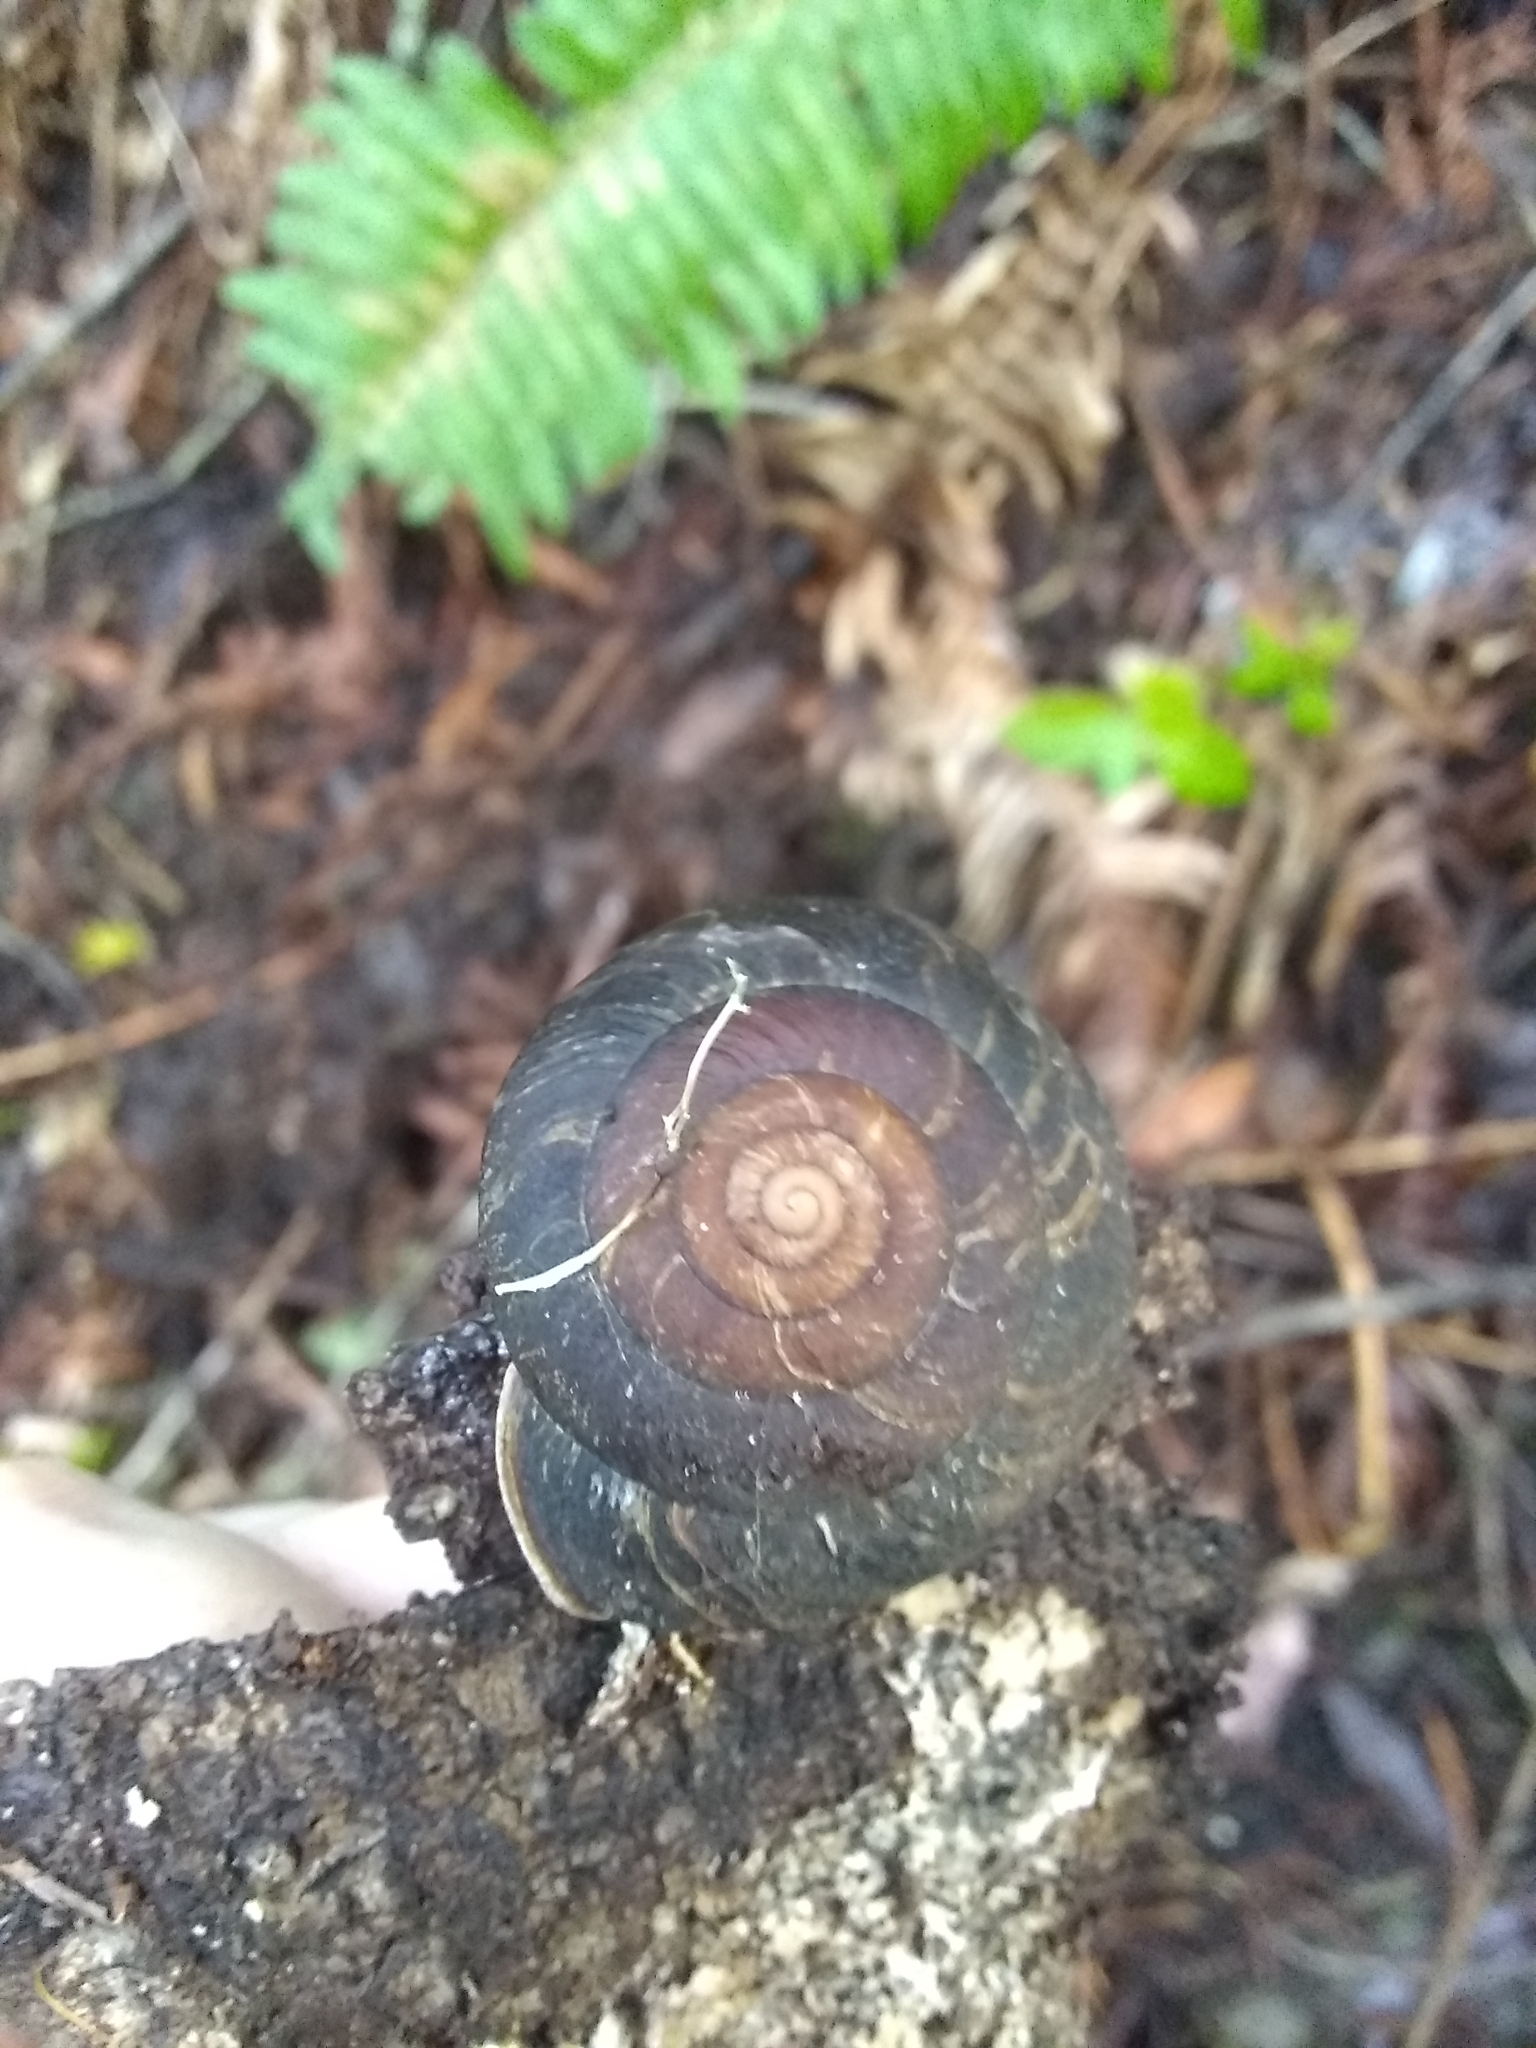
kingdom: Animalia
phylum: Mollusca
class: Gastropoda
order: Stylommatophora
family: Xanthonychidae
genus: Monadenia
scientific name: Monadenia infumata
